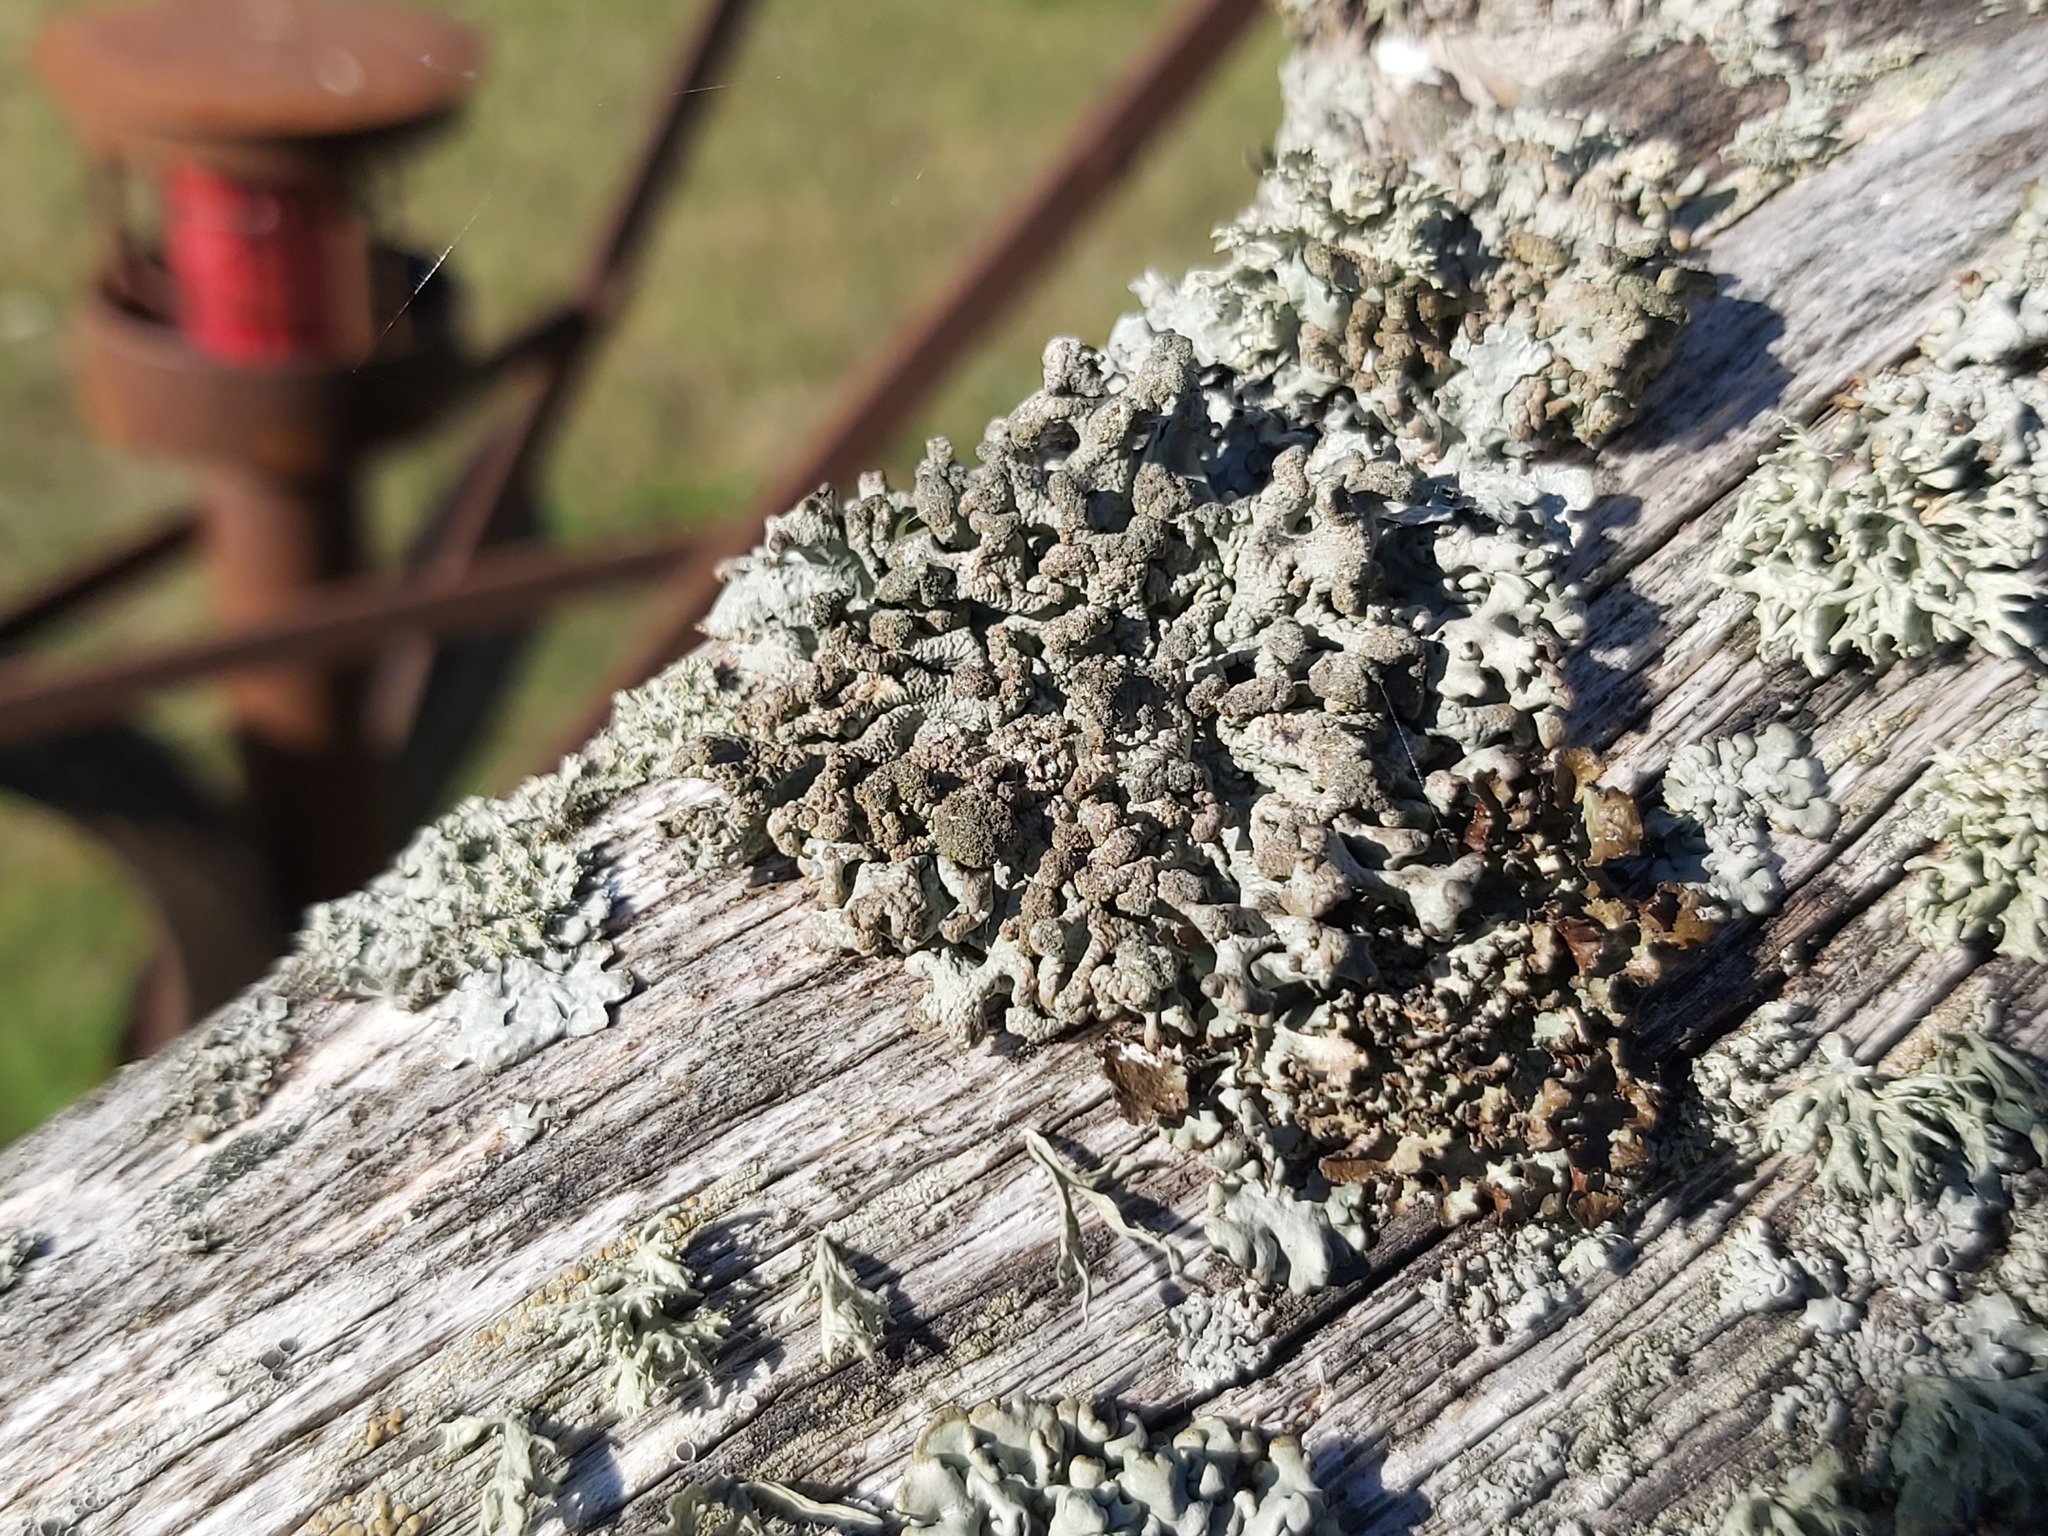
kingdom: Fungi
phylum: Ascomycota
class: Lecanoromycetes
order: Lecanorales
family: Parmeliaceae
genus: Hypogymnia
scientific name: Hypogymnia tubulosa
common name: Powder-headed tube lichen
